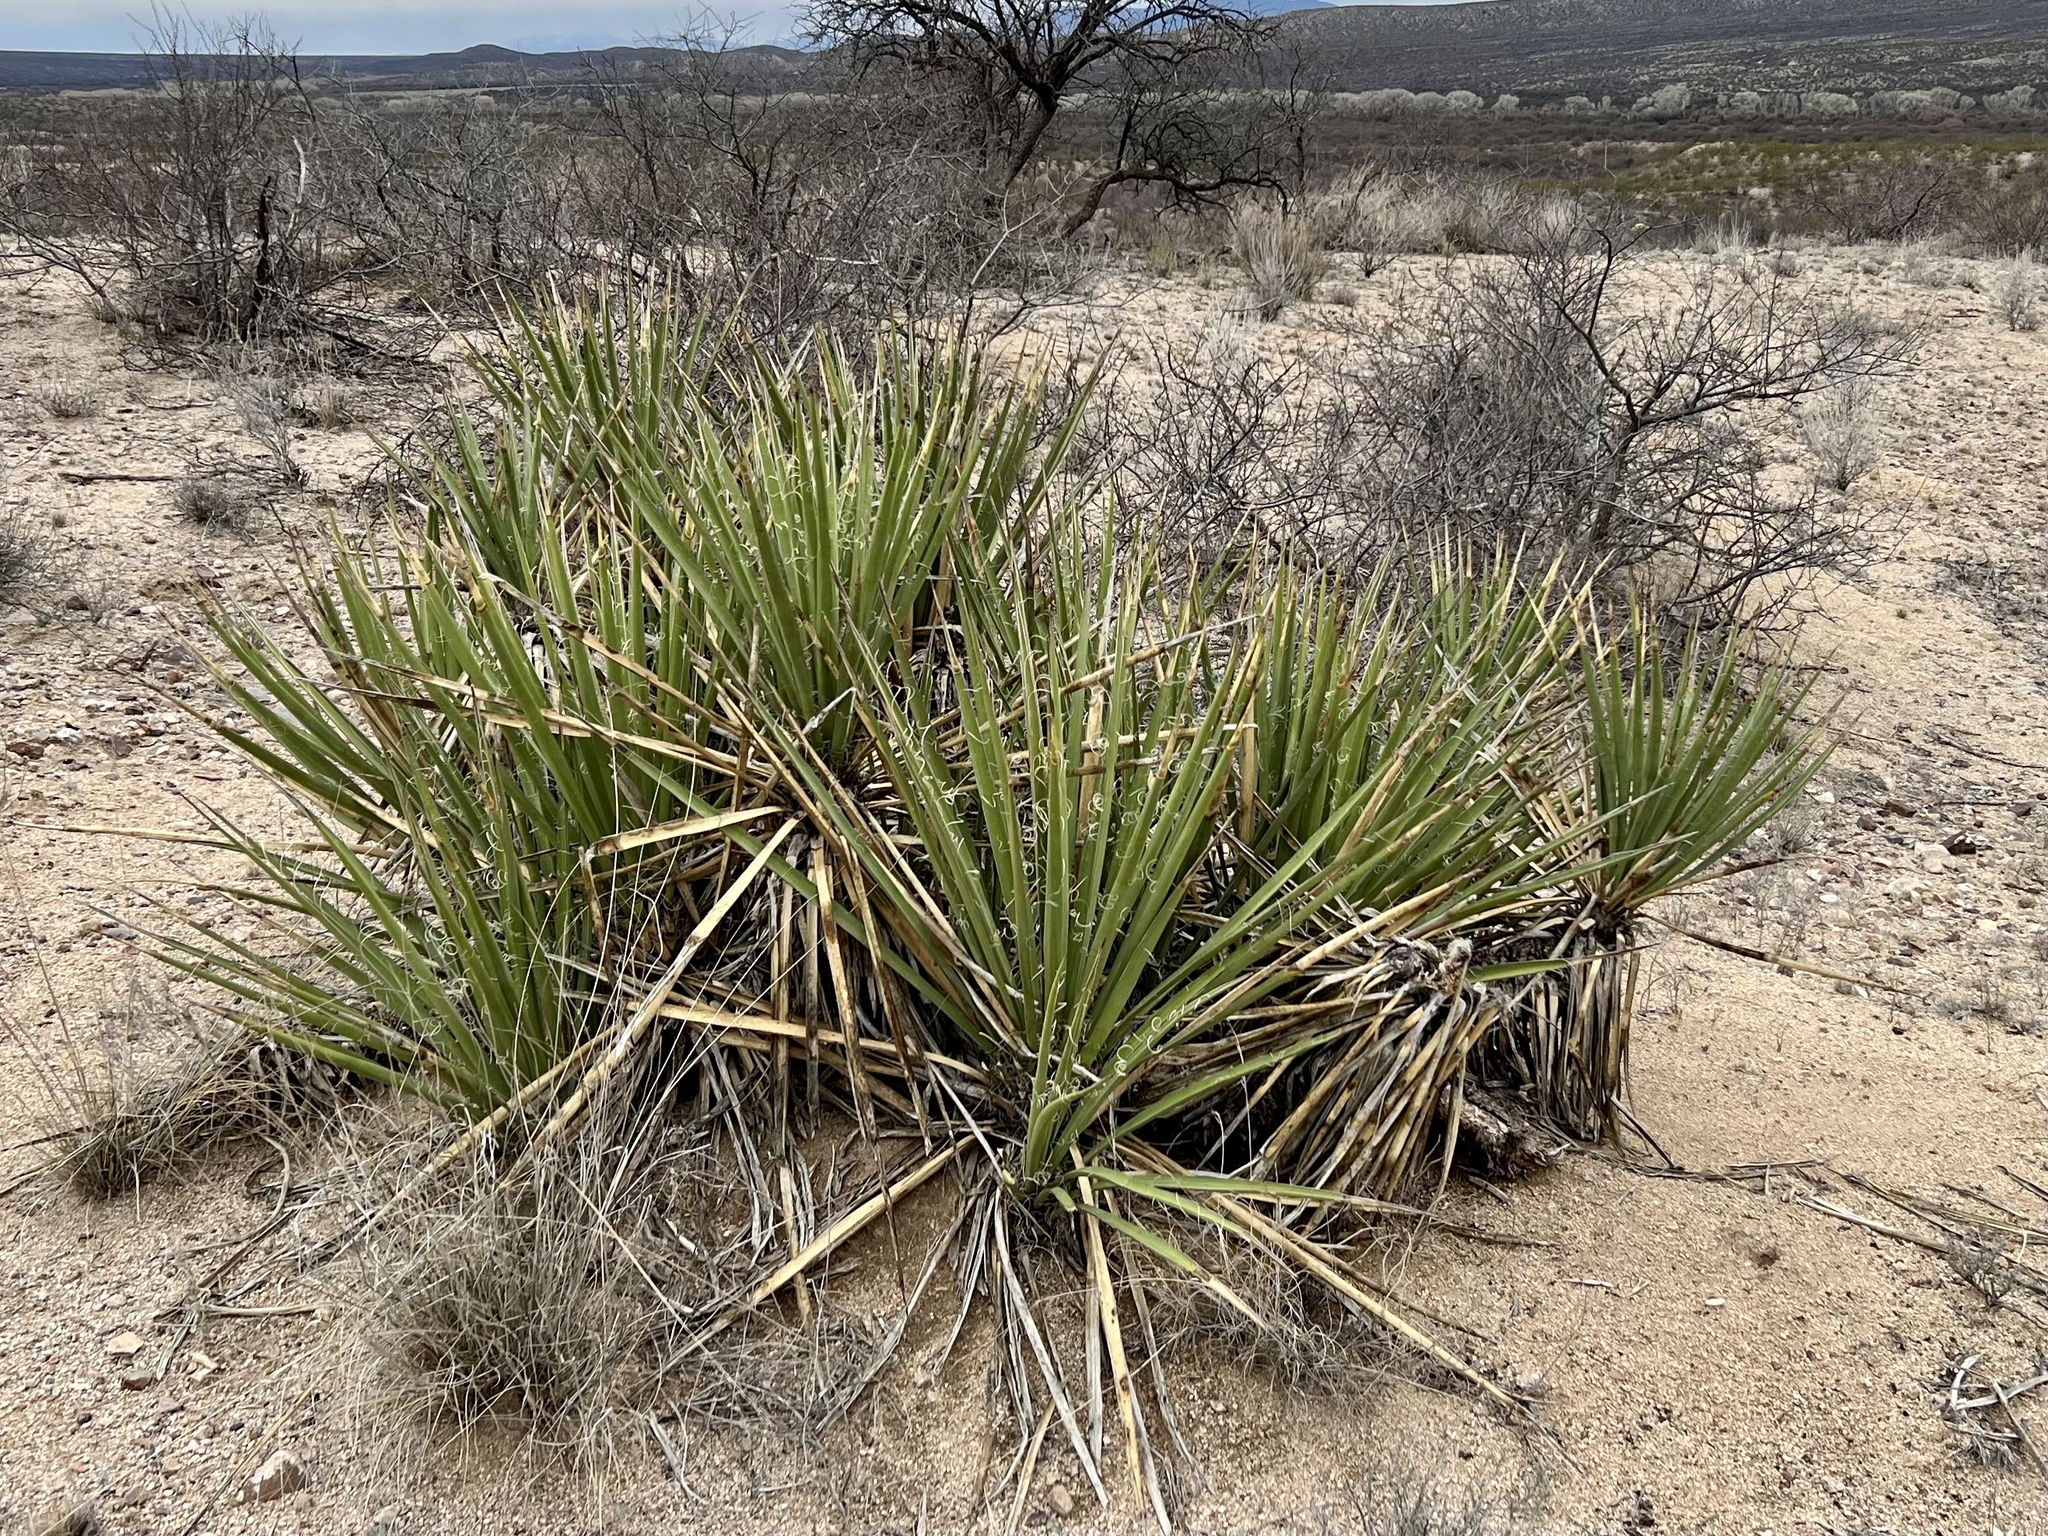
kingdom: Plantae
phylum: Tracheophyta
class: Liliopsida
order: Asparagales
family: Asparagaceae
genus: Yucca
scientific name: Yucca baccata
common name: Banana yucca
